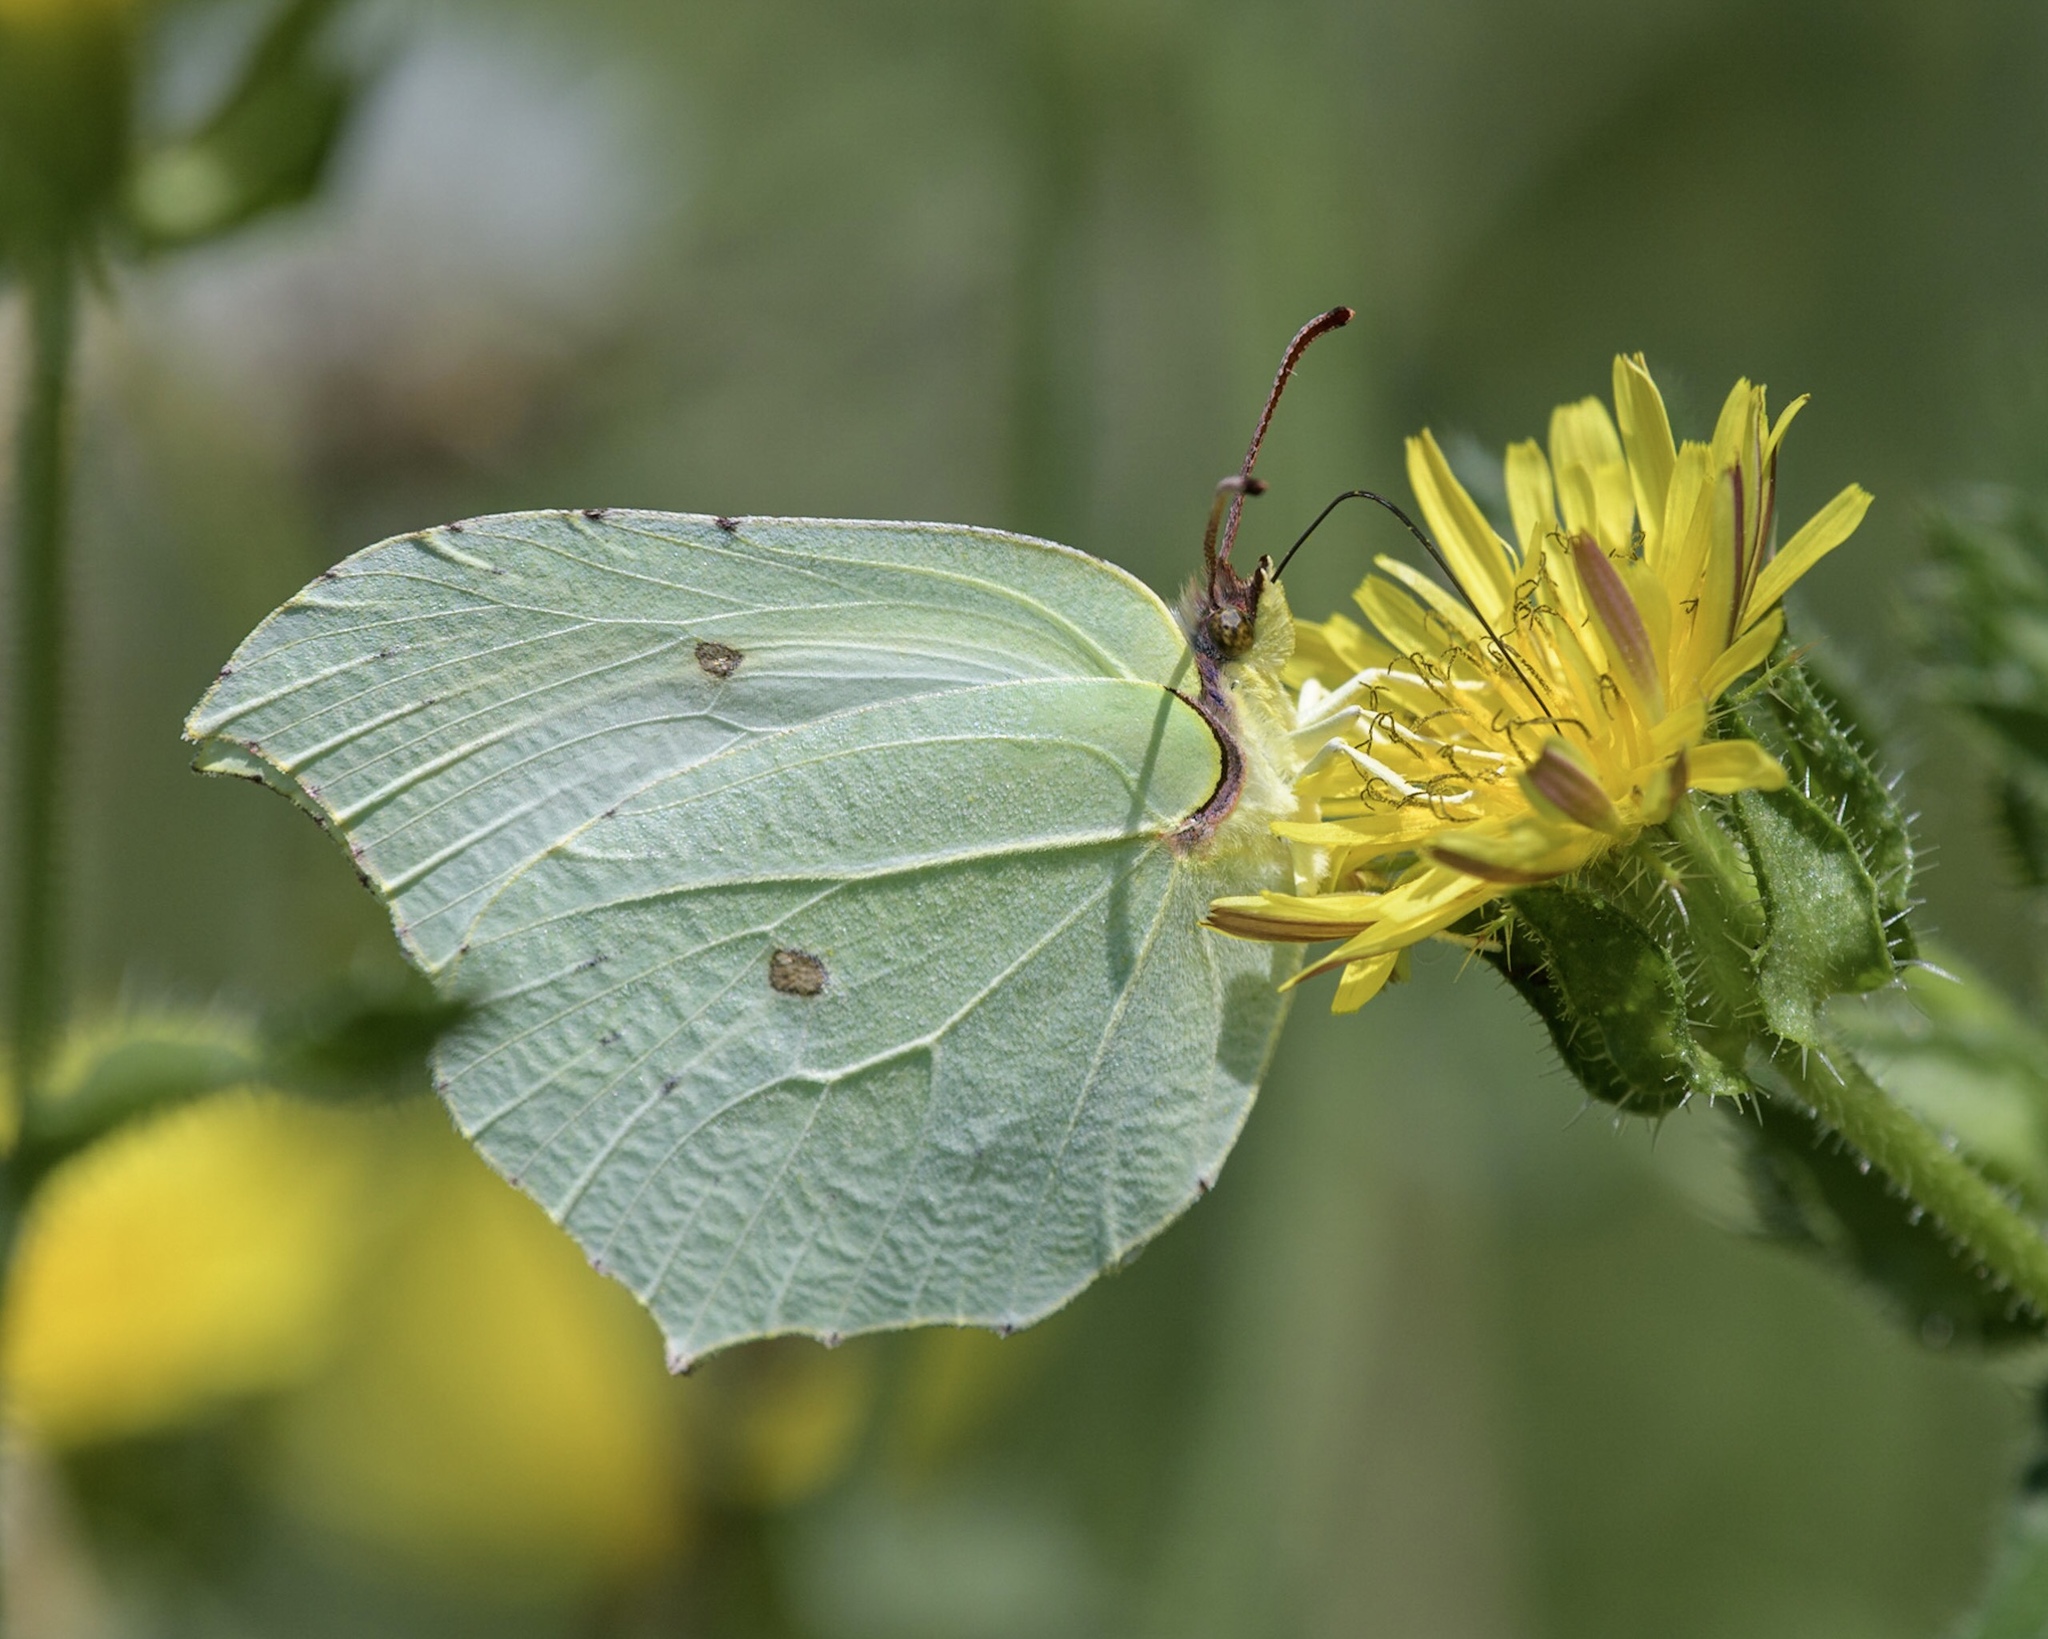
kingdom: Animalia
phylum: Arthropoda
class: Insecta
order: Lepidoptera
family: Pieridae
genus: Gonepteryx
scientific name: Gonepteryx rhamni
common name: Brimstone
